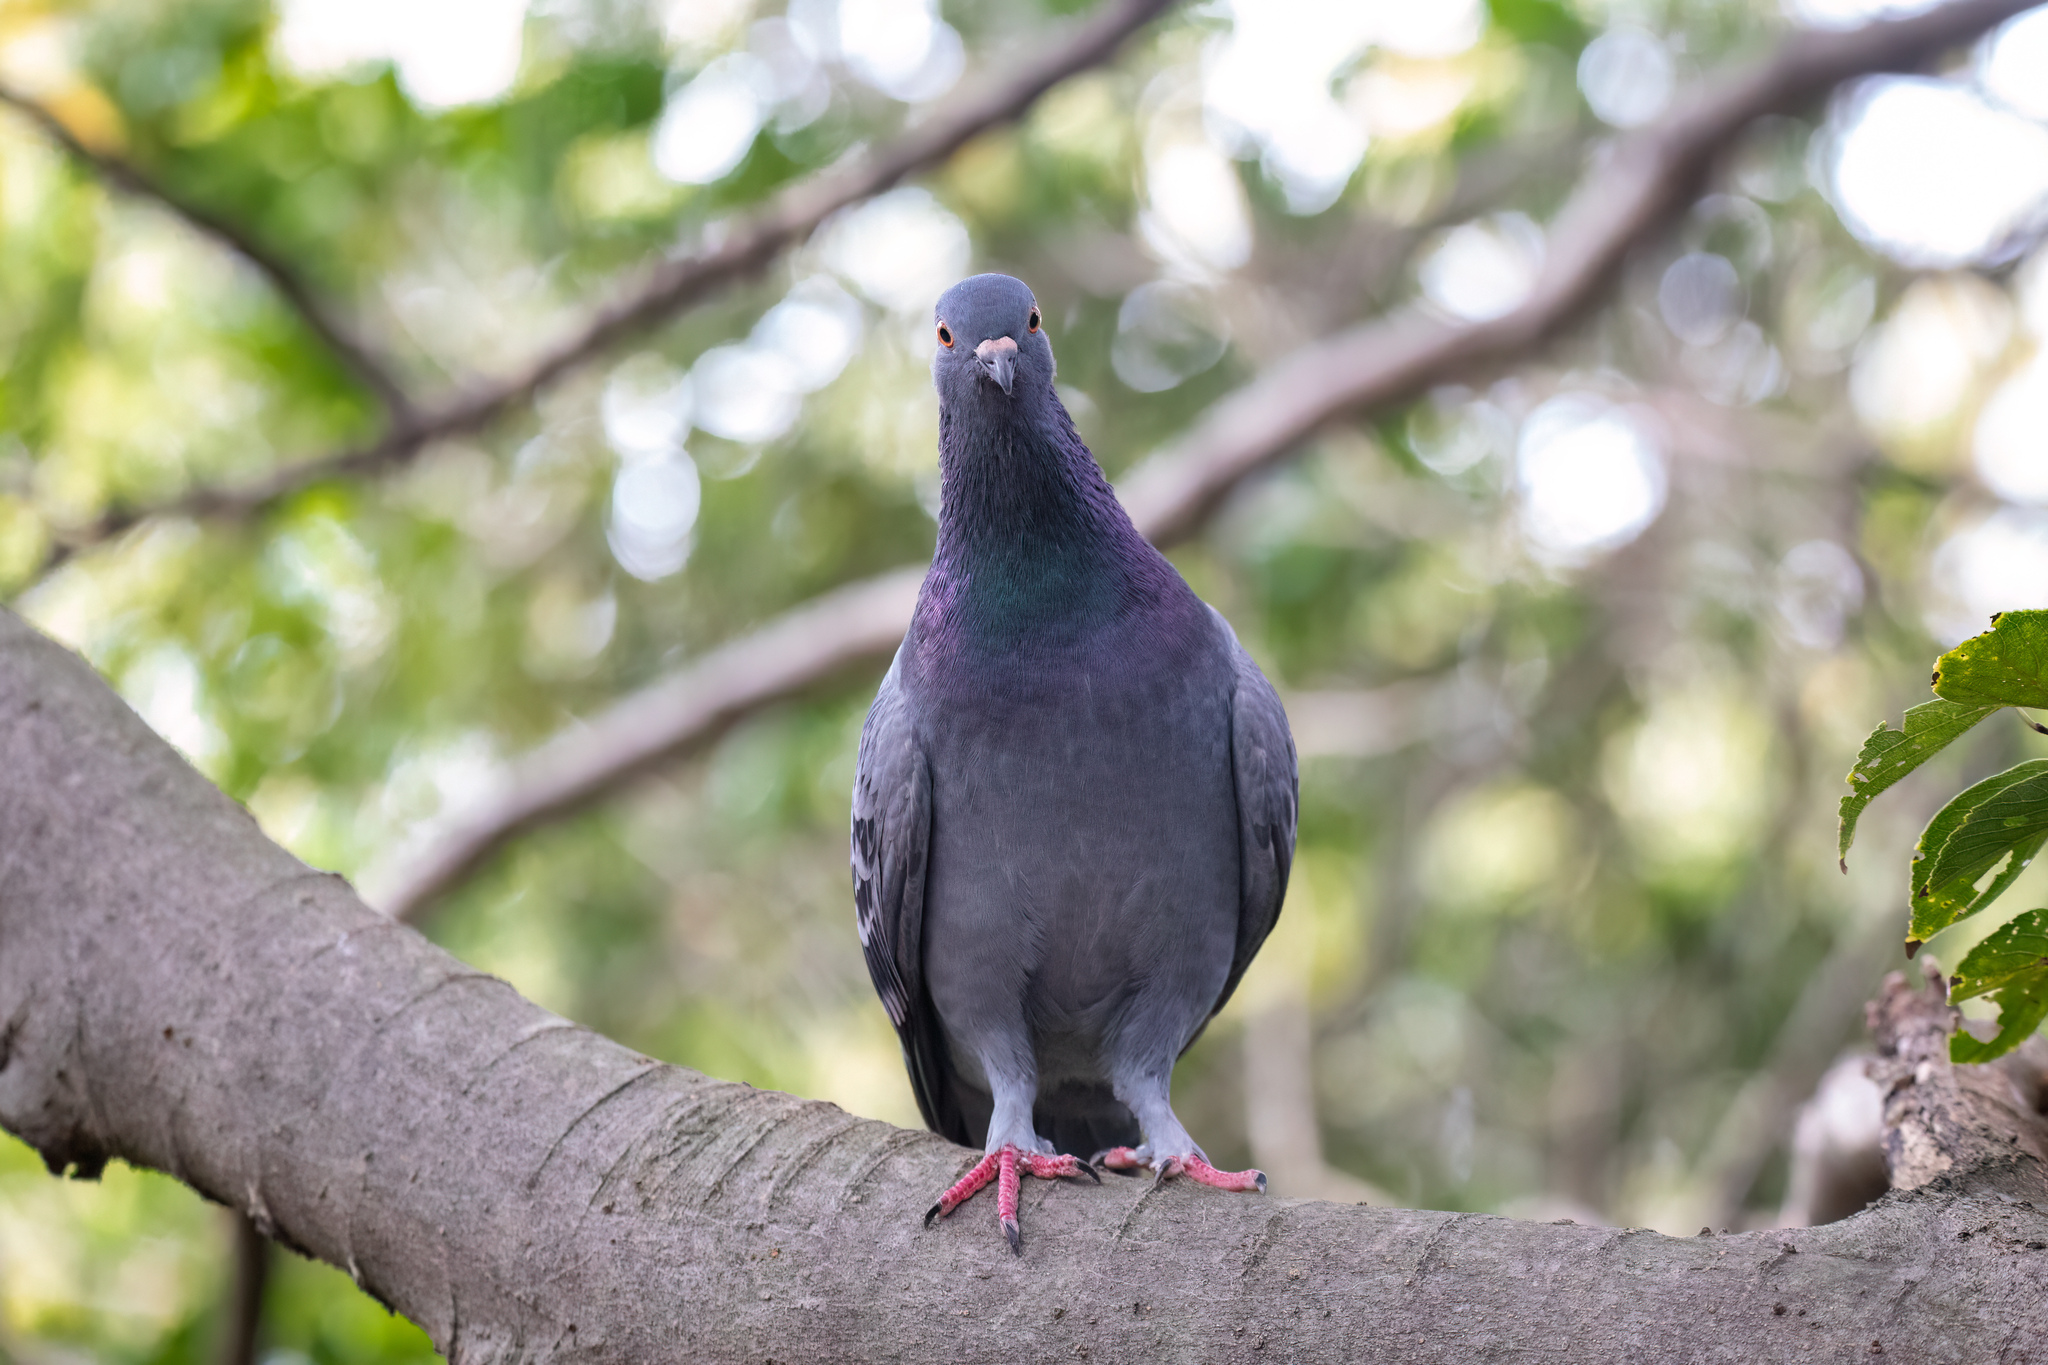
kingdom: Animalia
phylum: Chordata
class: Aves
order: Columbiformes
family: Columbidae
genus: Columba
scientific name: Columba livia
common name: Rock pigeon
